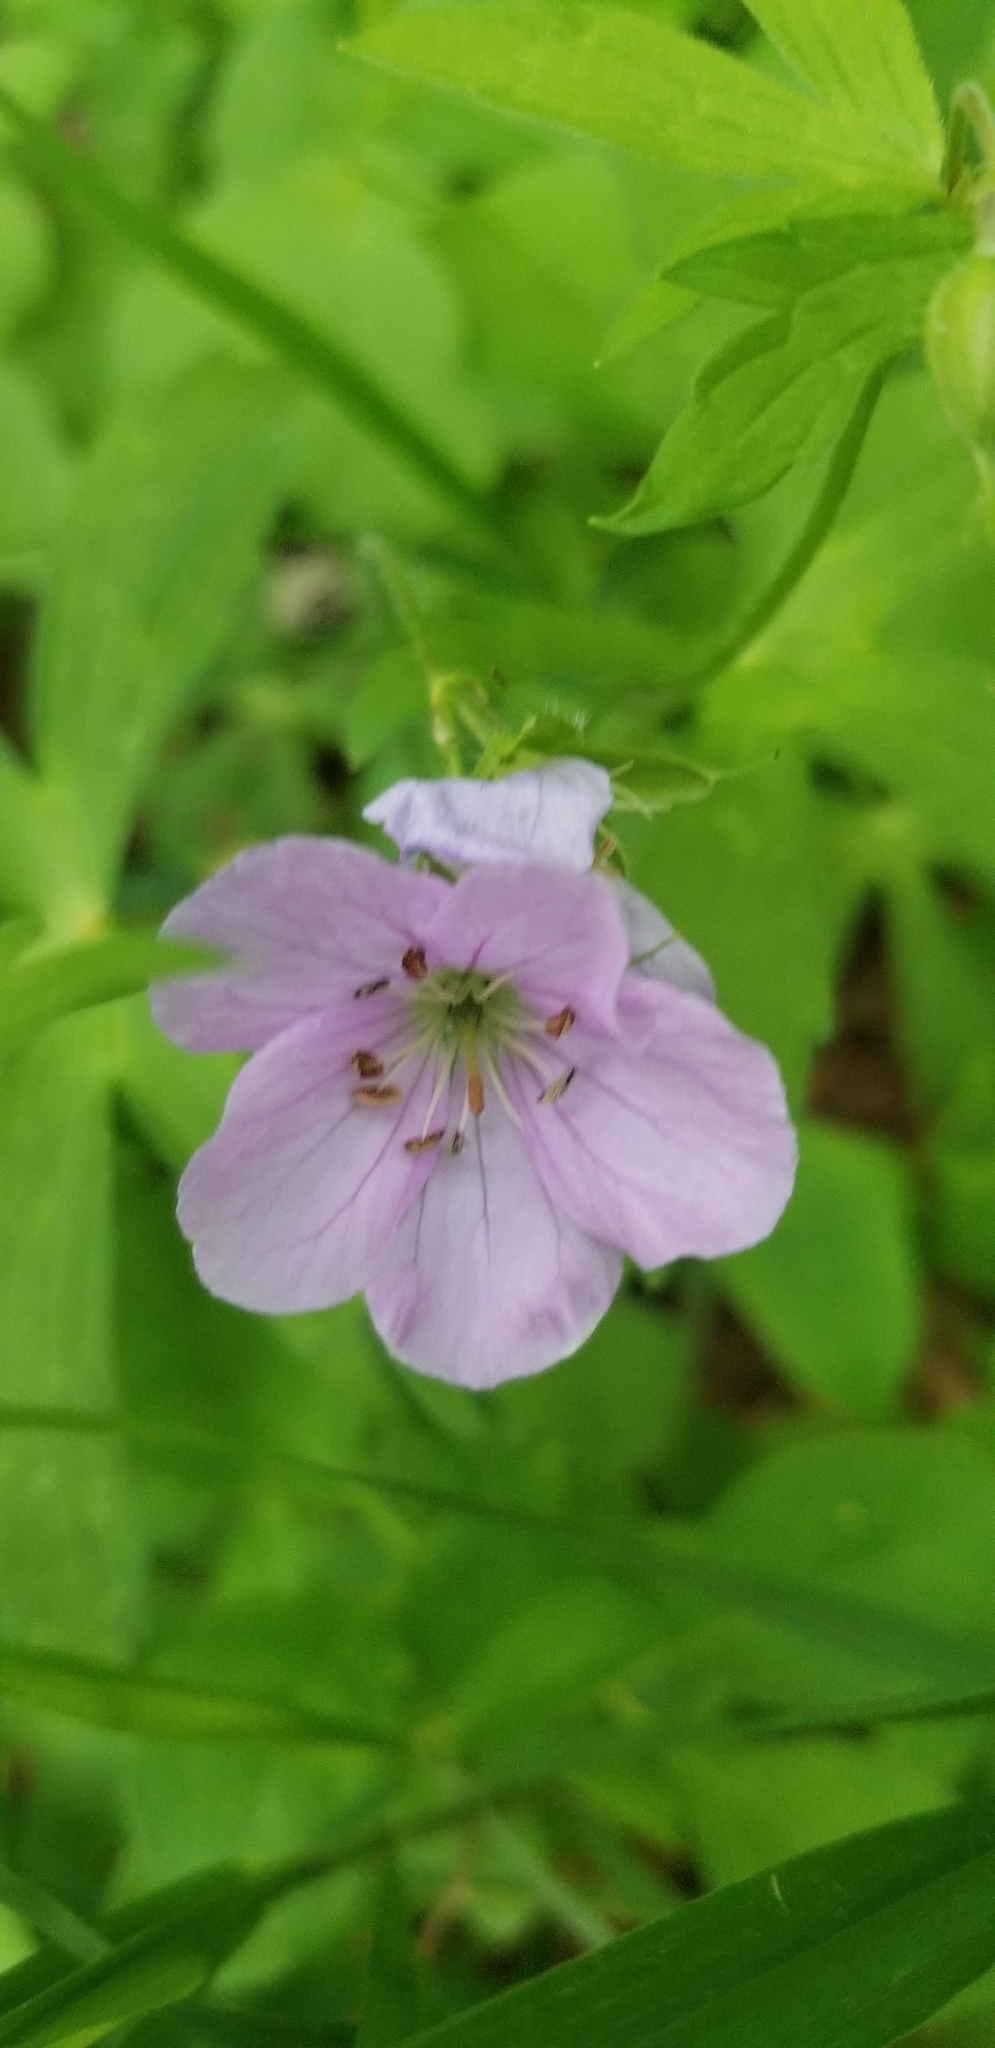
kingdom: Plantae
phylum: Tracheophyta
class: Magnoliopsida
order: Geraniales
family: Geraniaceae
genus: Geranium
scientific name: Geranium maculatum
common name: Spotted geranium
